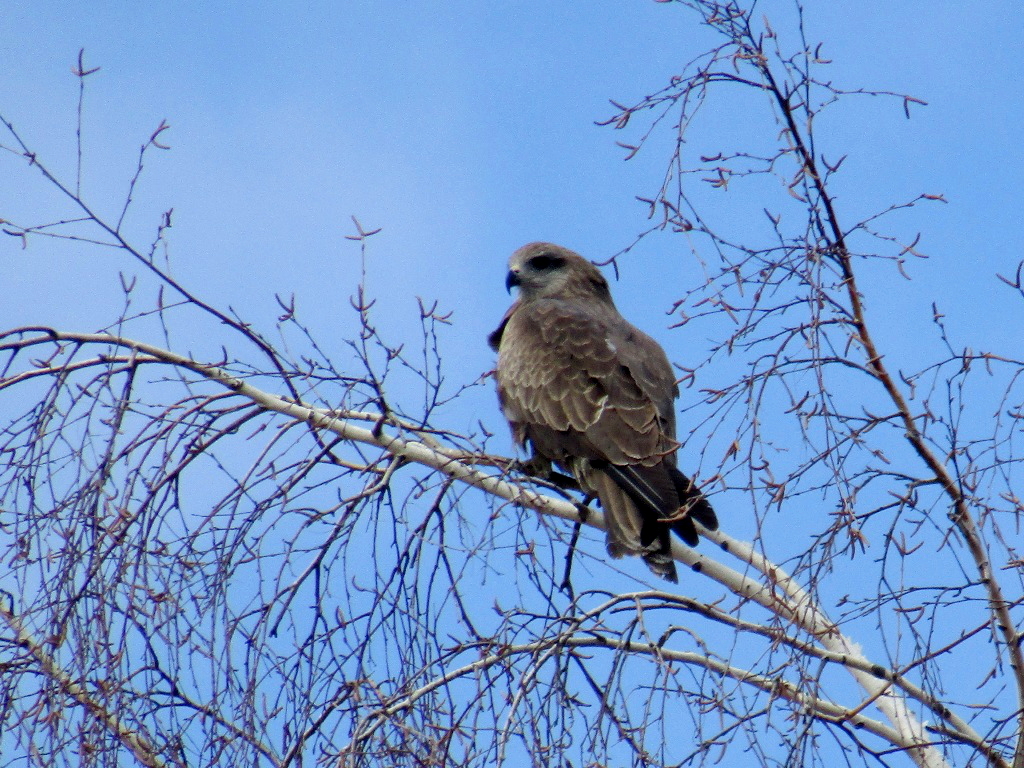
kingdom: Animalia
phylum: Chordata
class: Aves
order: Accipitriformes
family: Accipitridae
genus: Milvus
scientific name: Milvus migrans
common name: Black kite
